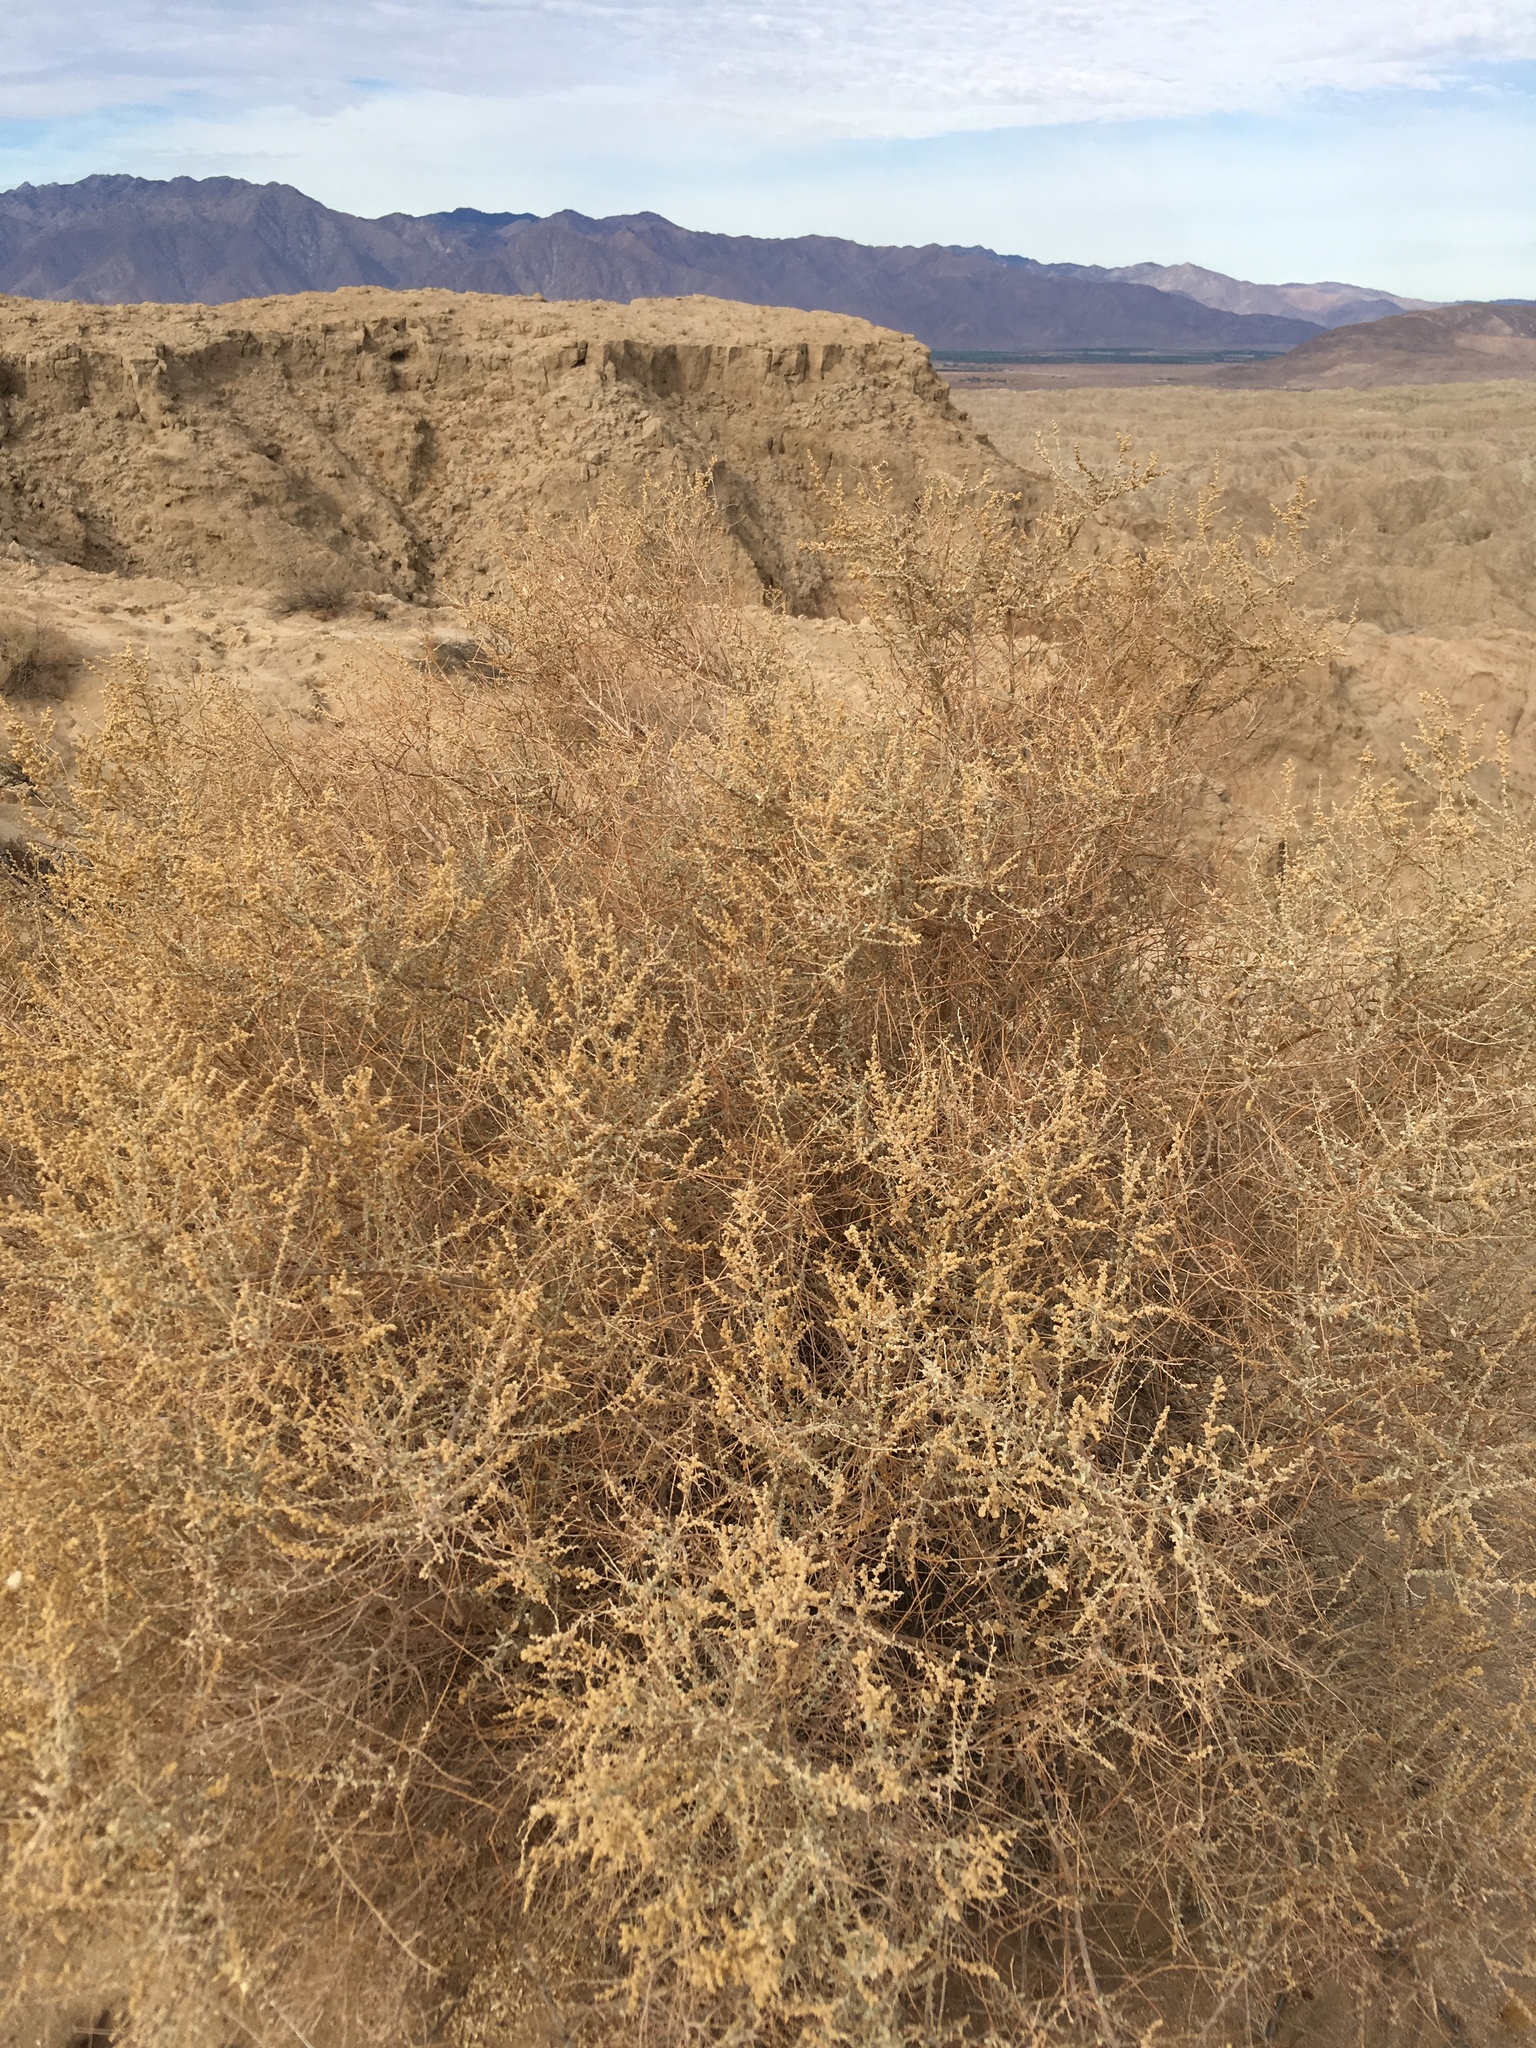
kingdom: Plantae
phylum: Tracheophyta
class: Magnoliopsida
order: Caryophyllales
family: Amaranthaceae
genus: Atriplex
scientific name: Atriplex polycarpa
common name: Desert saltbush
